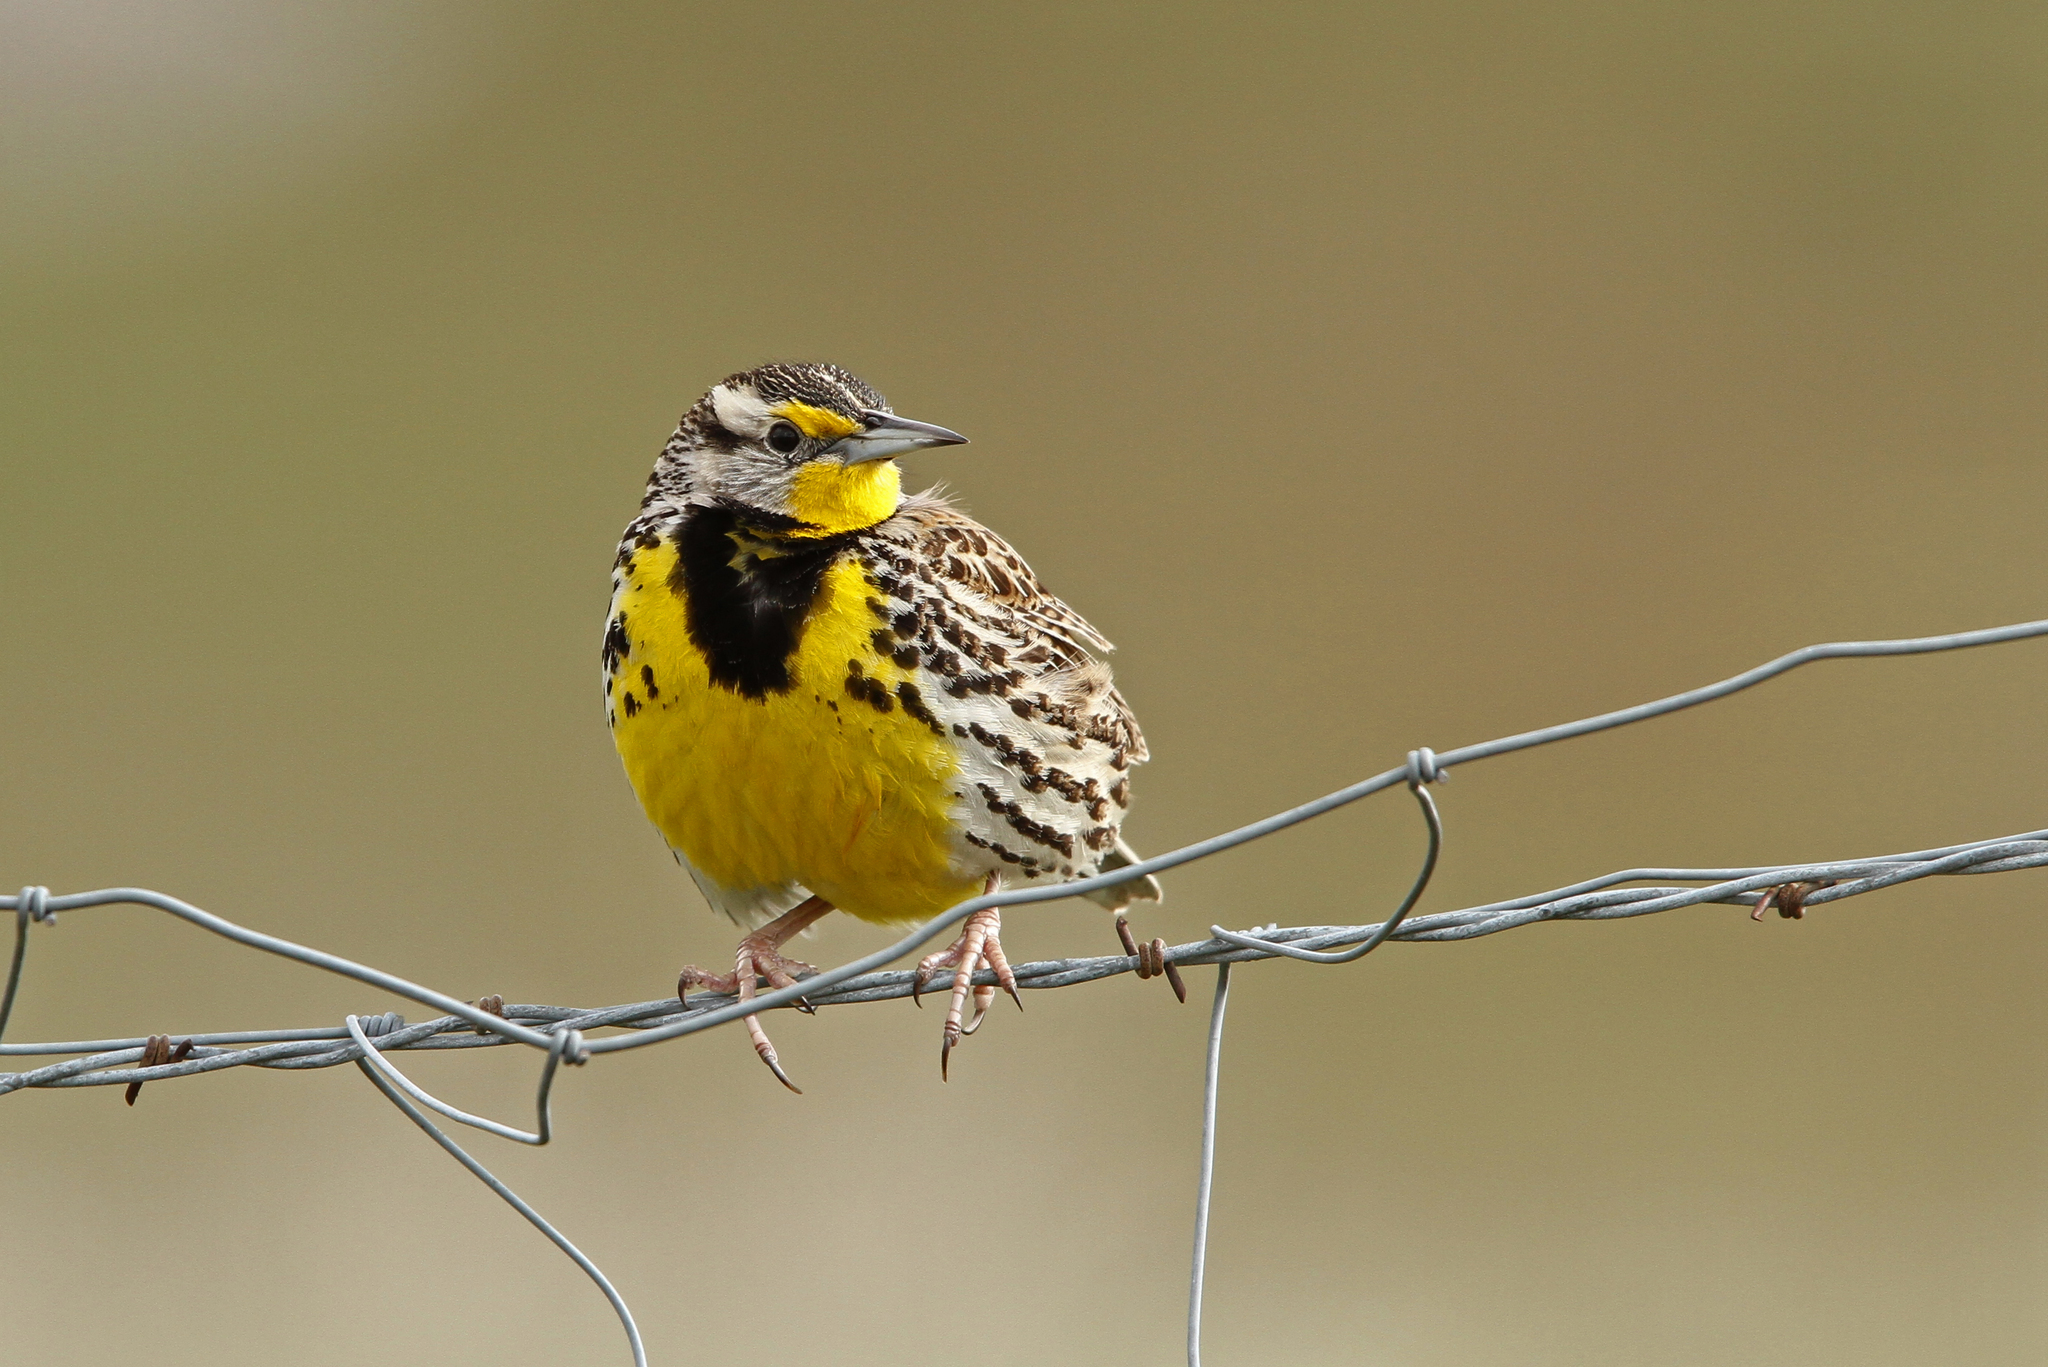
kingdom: Animalia
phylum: Chordata
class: Aves
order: Passeriformes
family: Icteridae
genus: Sturnella
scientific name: Sturnella neglecta
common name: Western meadowlark
